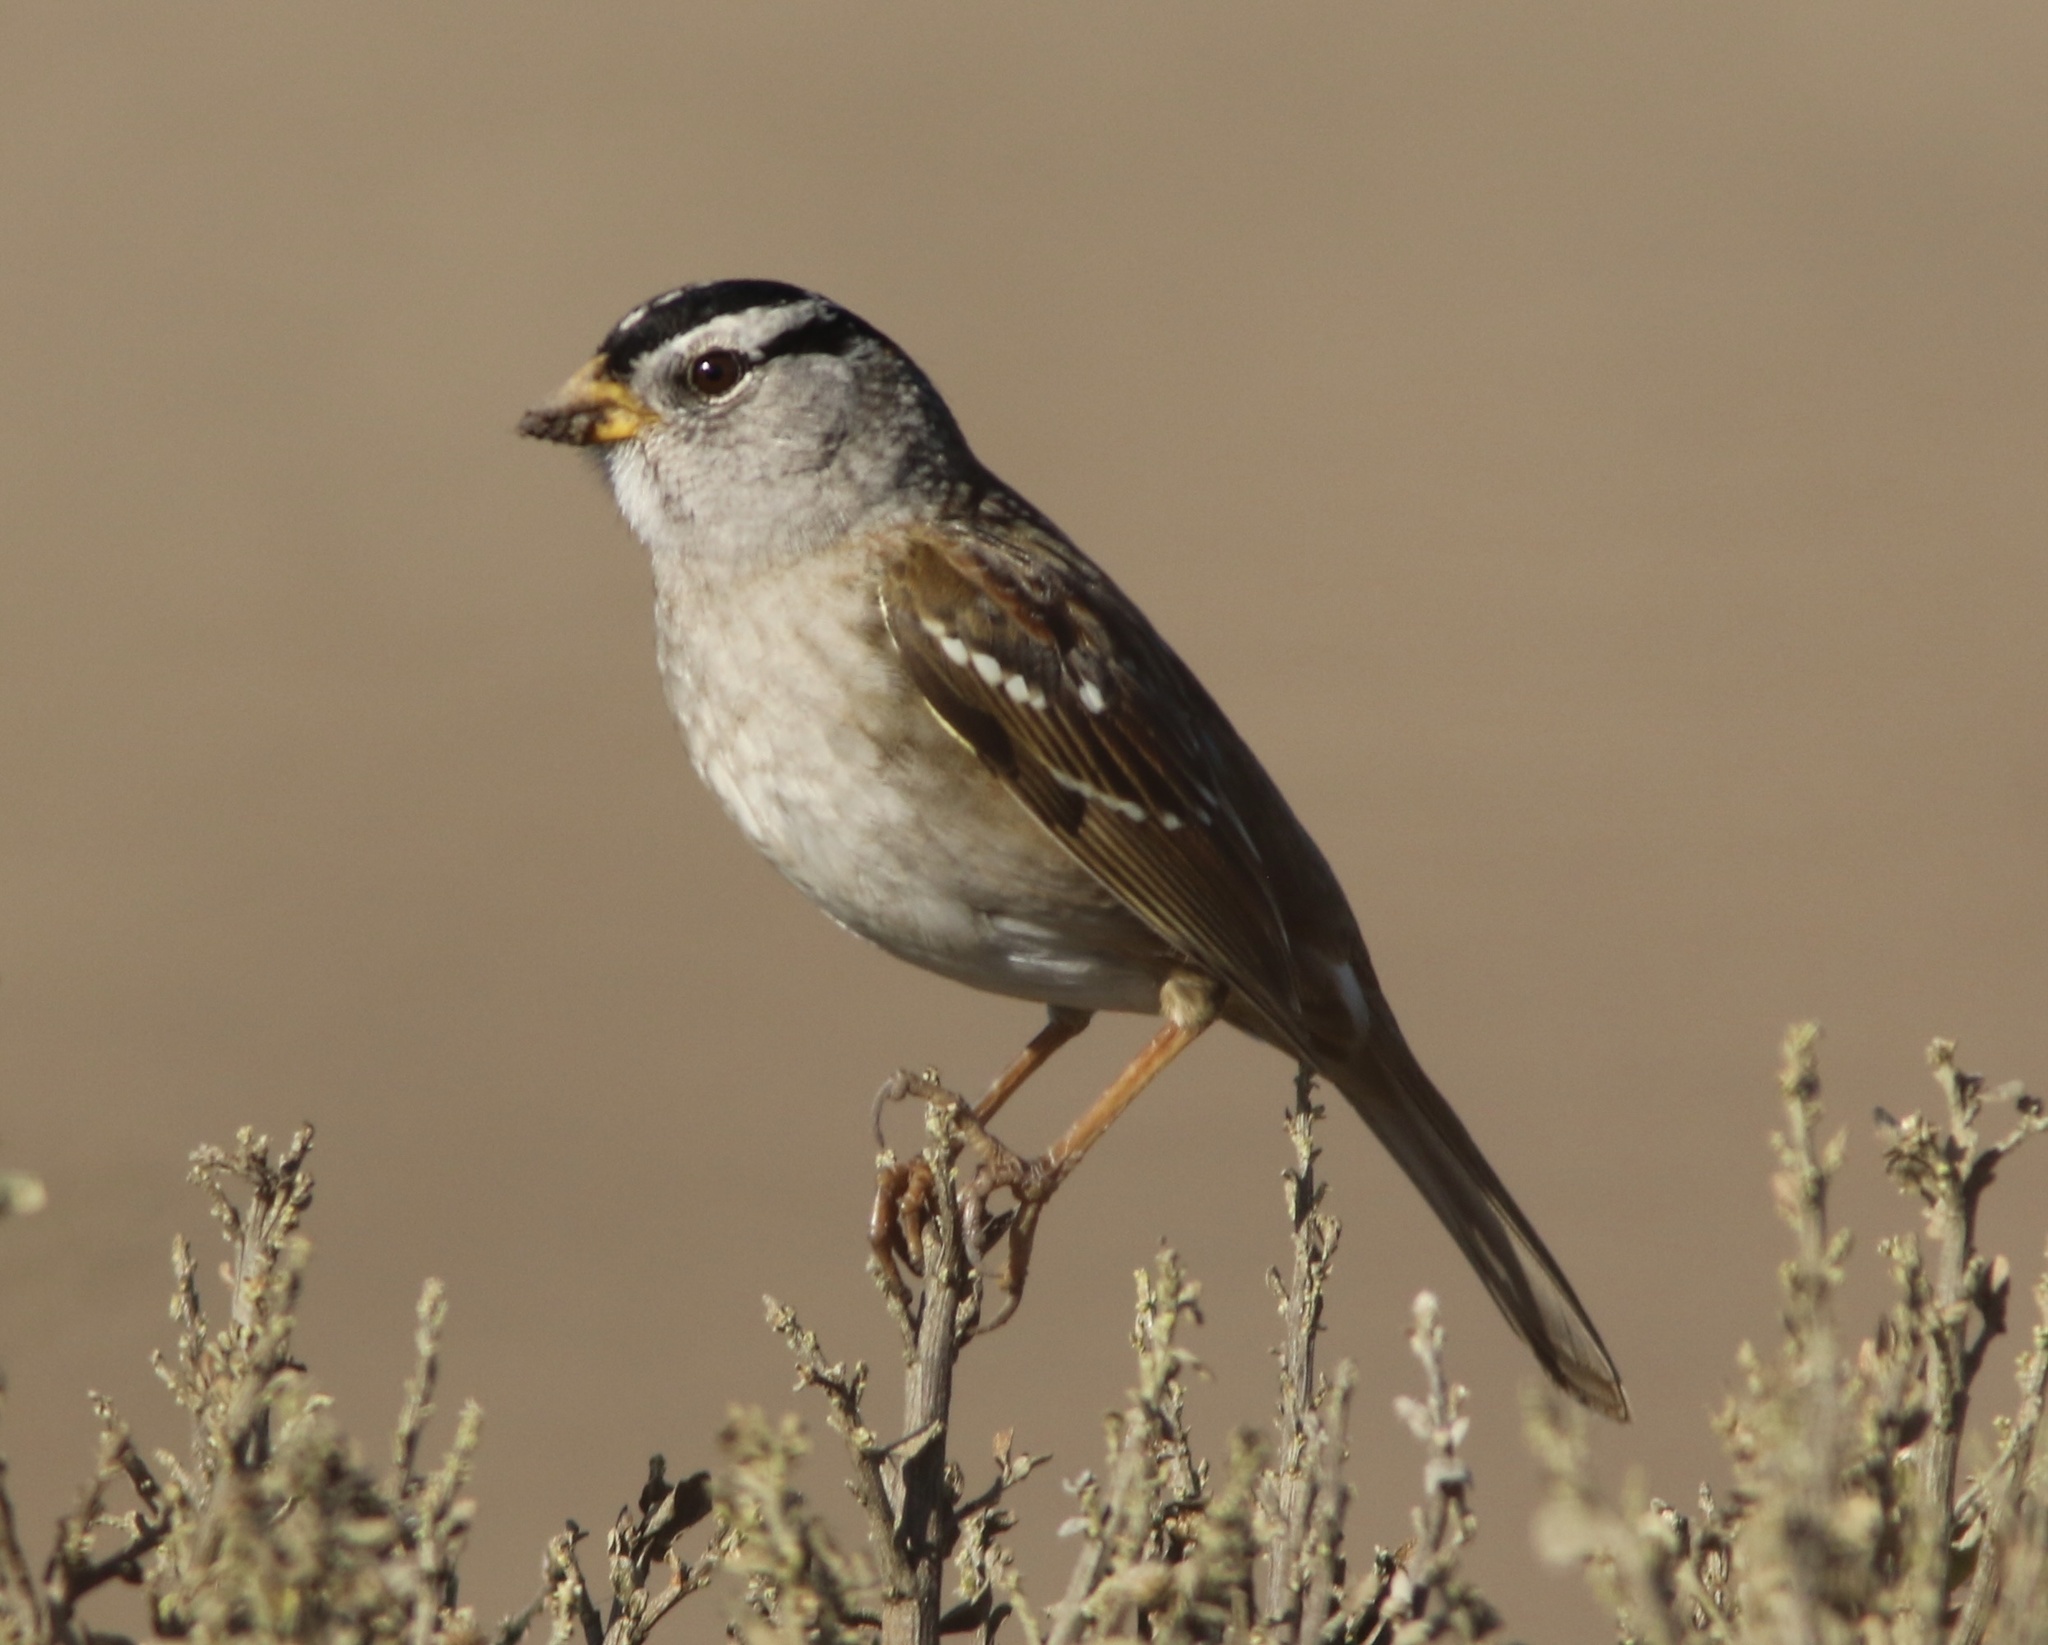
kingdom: Animalia
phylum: Chordata
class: Aves
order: Passeriformes
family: Passerellidae
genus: Zonotrichia
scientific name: Zonotrichia leucophrys
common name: White-crowned sparrow
